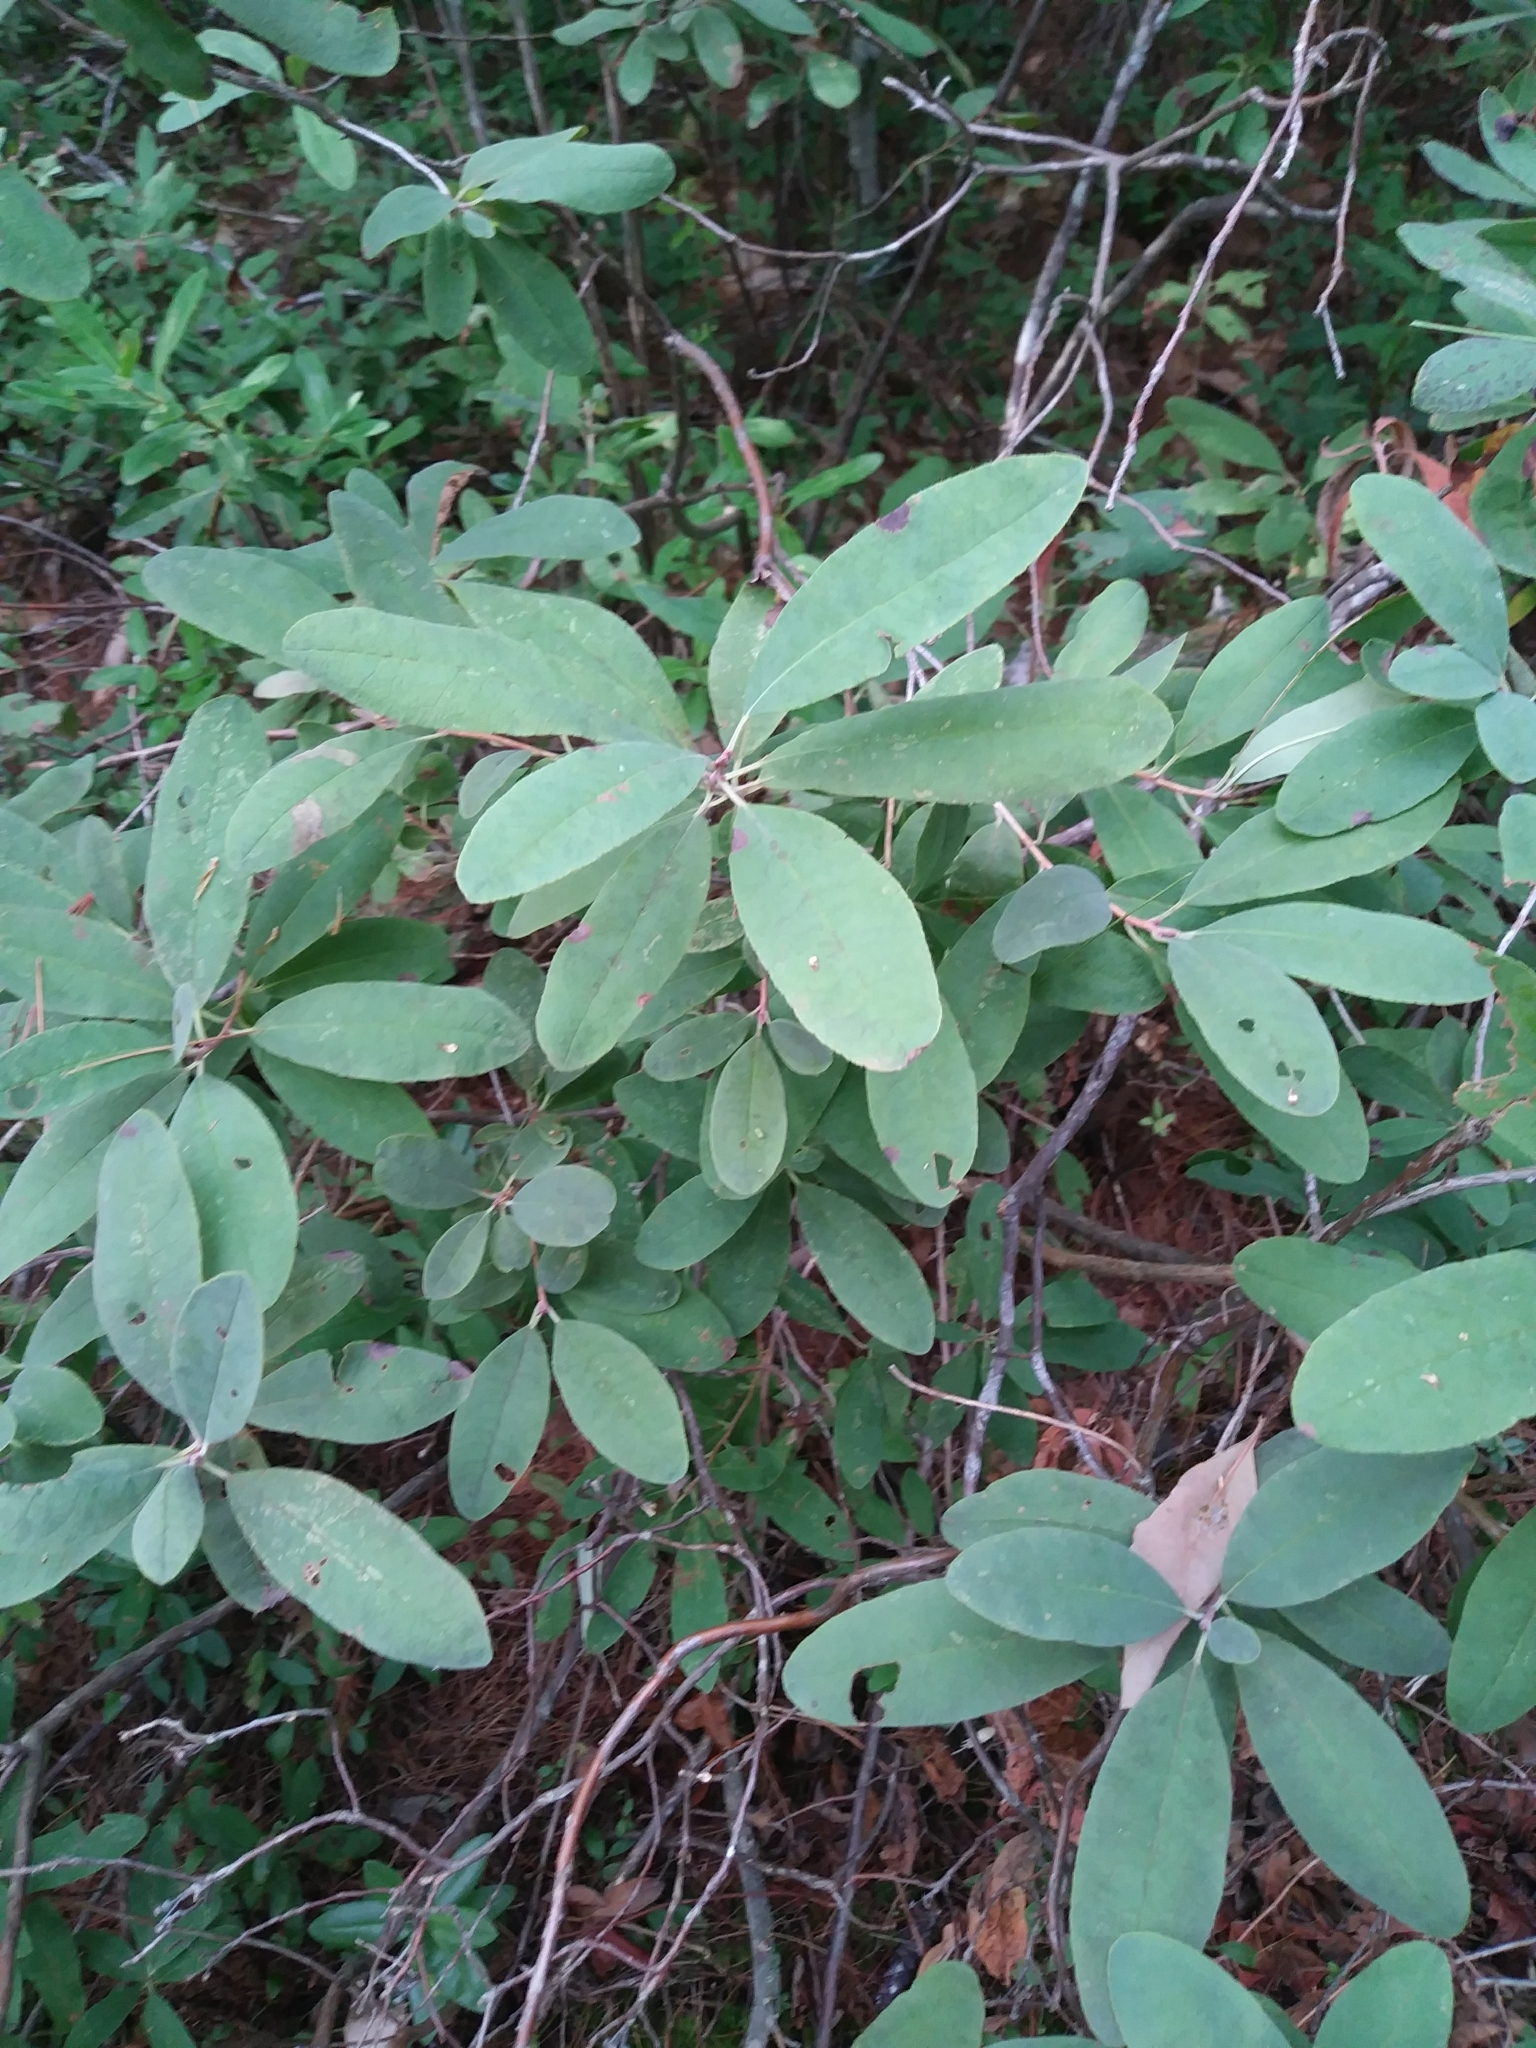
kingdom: Plantae
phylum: Tracheophyta
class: Magnoliopsida
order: Ericales
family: Ericaceae
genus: Rhododendron
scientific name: Rhododendron canadense
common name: Rhodora
